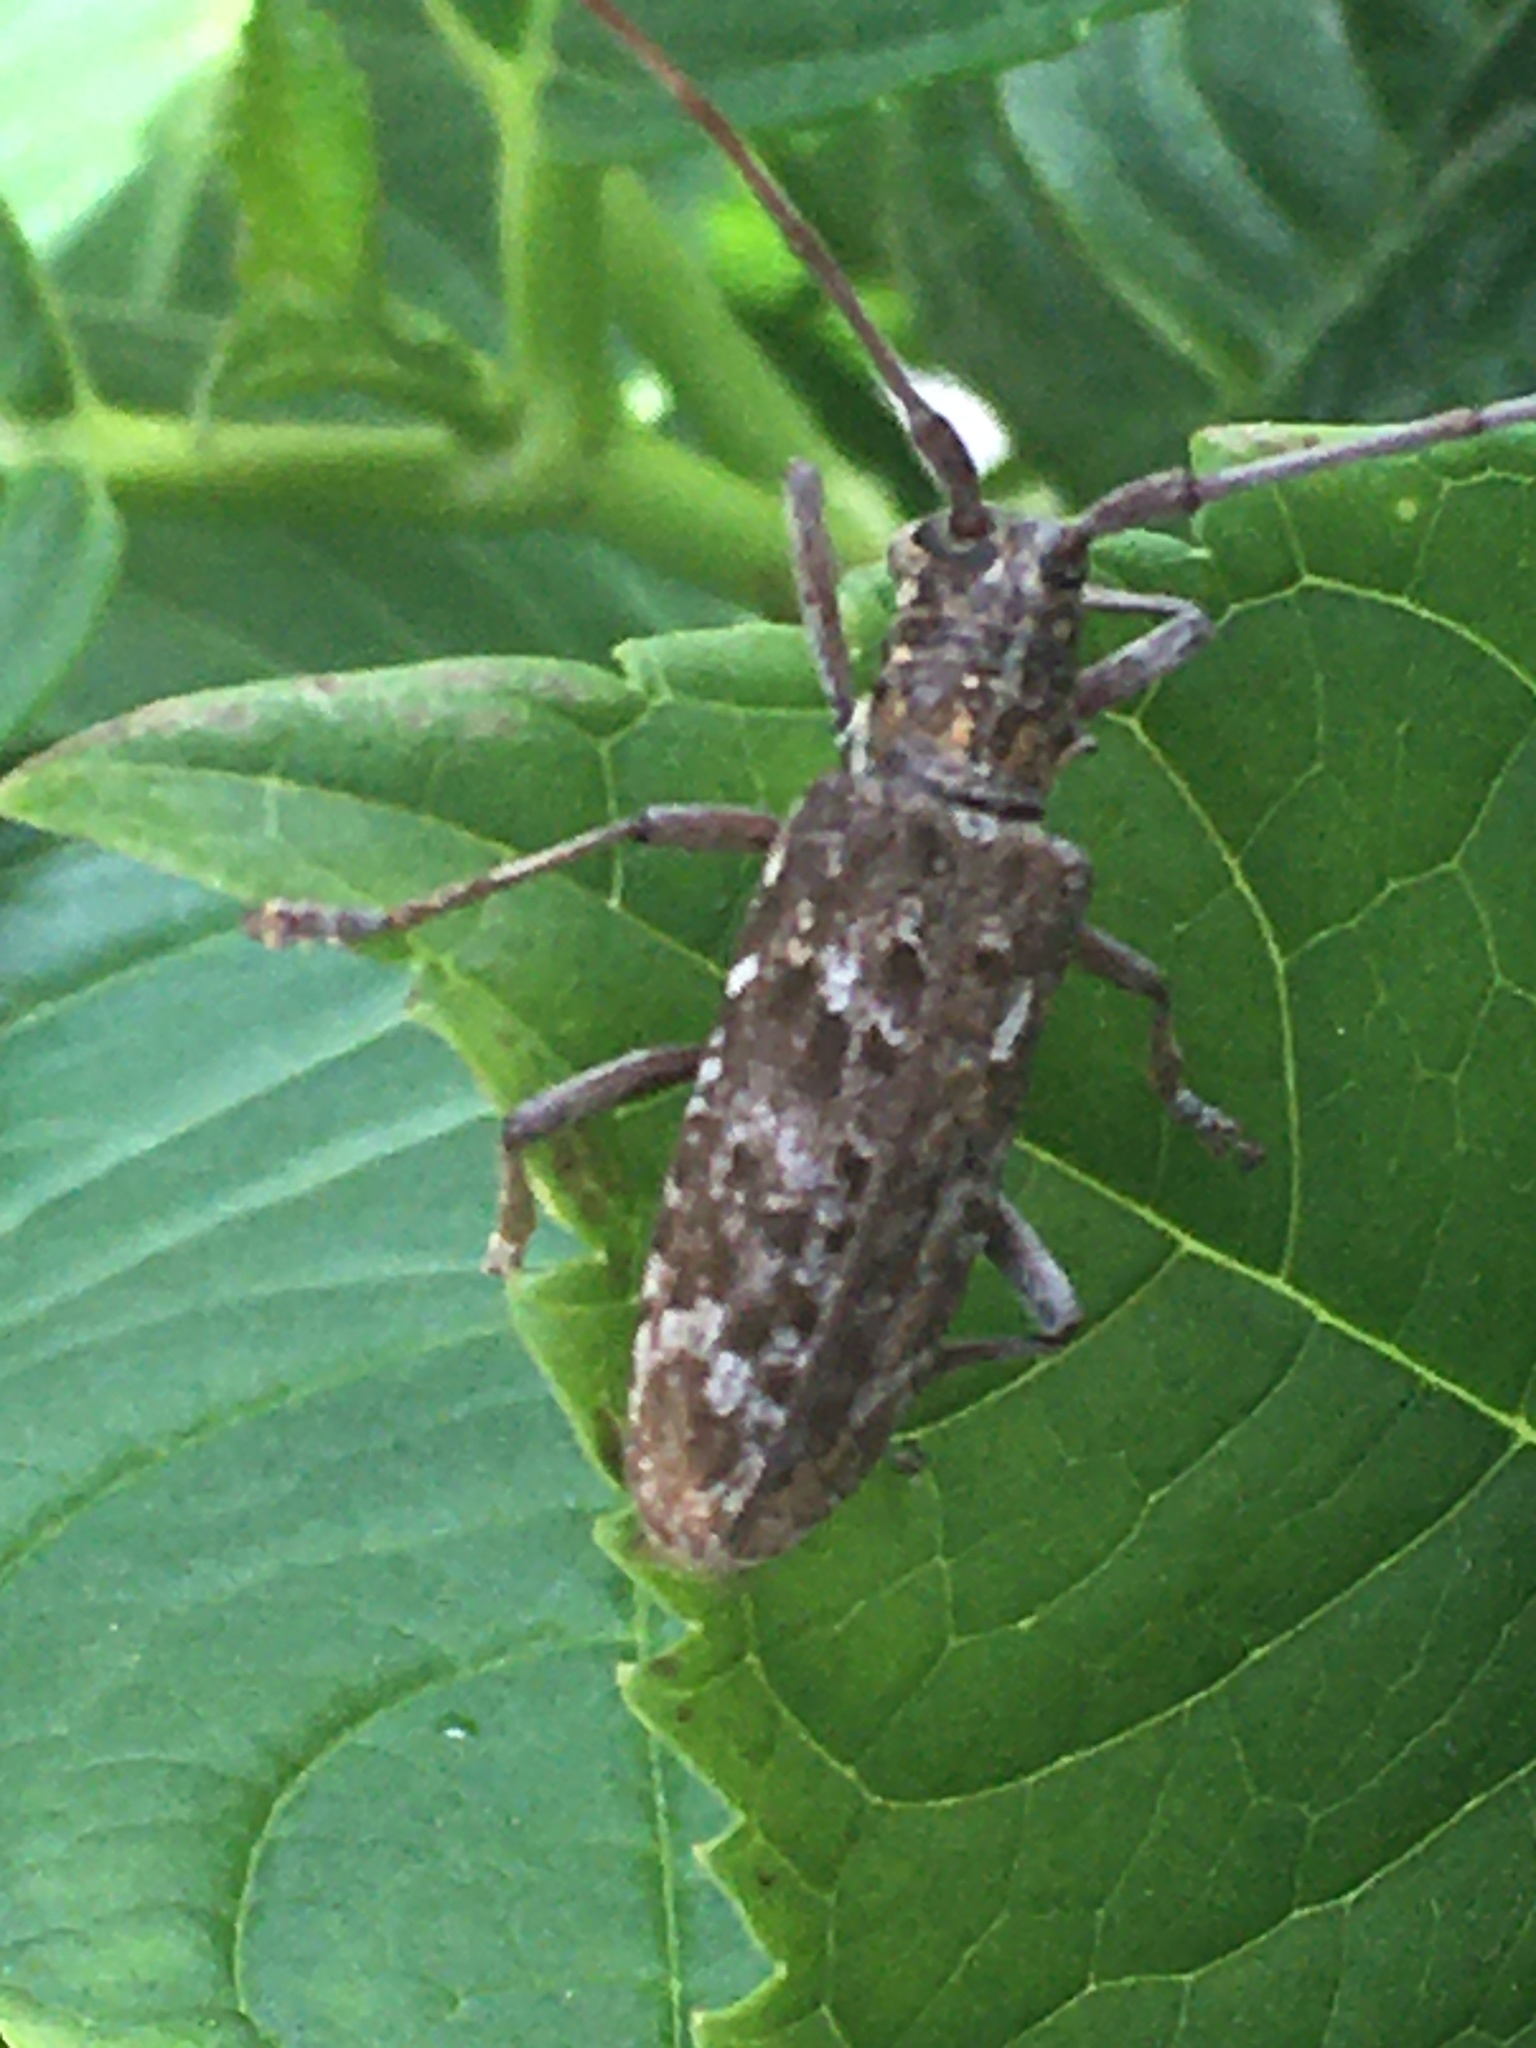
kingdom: Animalia
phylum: Arthropoda
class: Insecta
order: Coleoptera
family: Cerambycidae
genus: Monochamus
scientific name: Monochamus carolinensis
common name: Carolina pine sawyer
